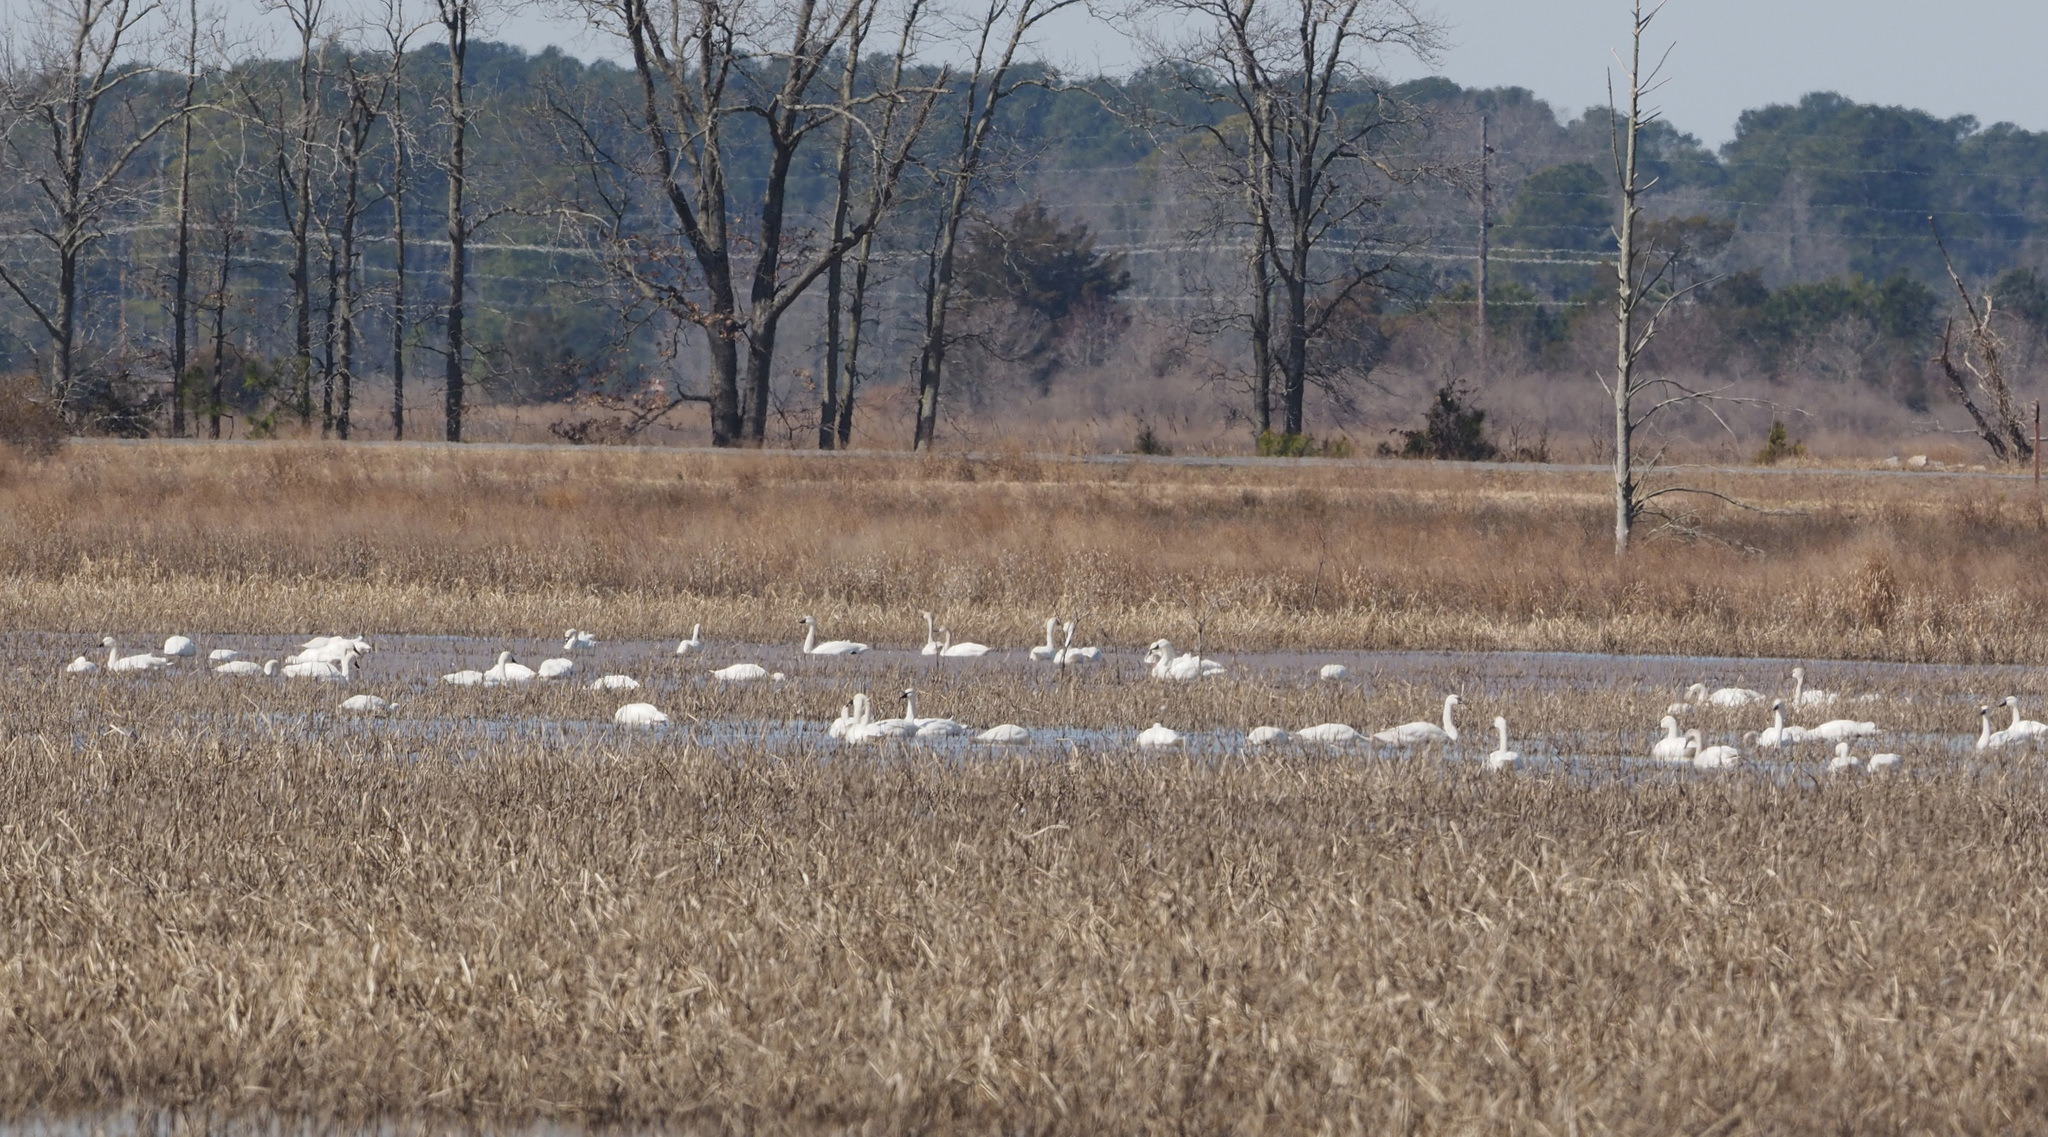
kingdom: Animalia
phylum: Chordata
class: Aves
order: Anseriformes
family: Anatidae
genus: Cygnus
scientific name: Cygnus columbianus
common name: Tundra swan
